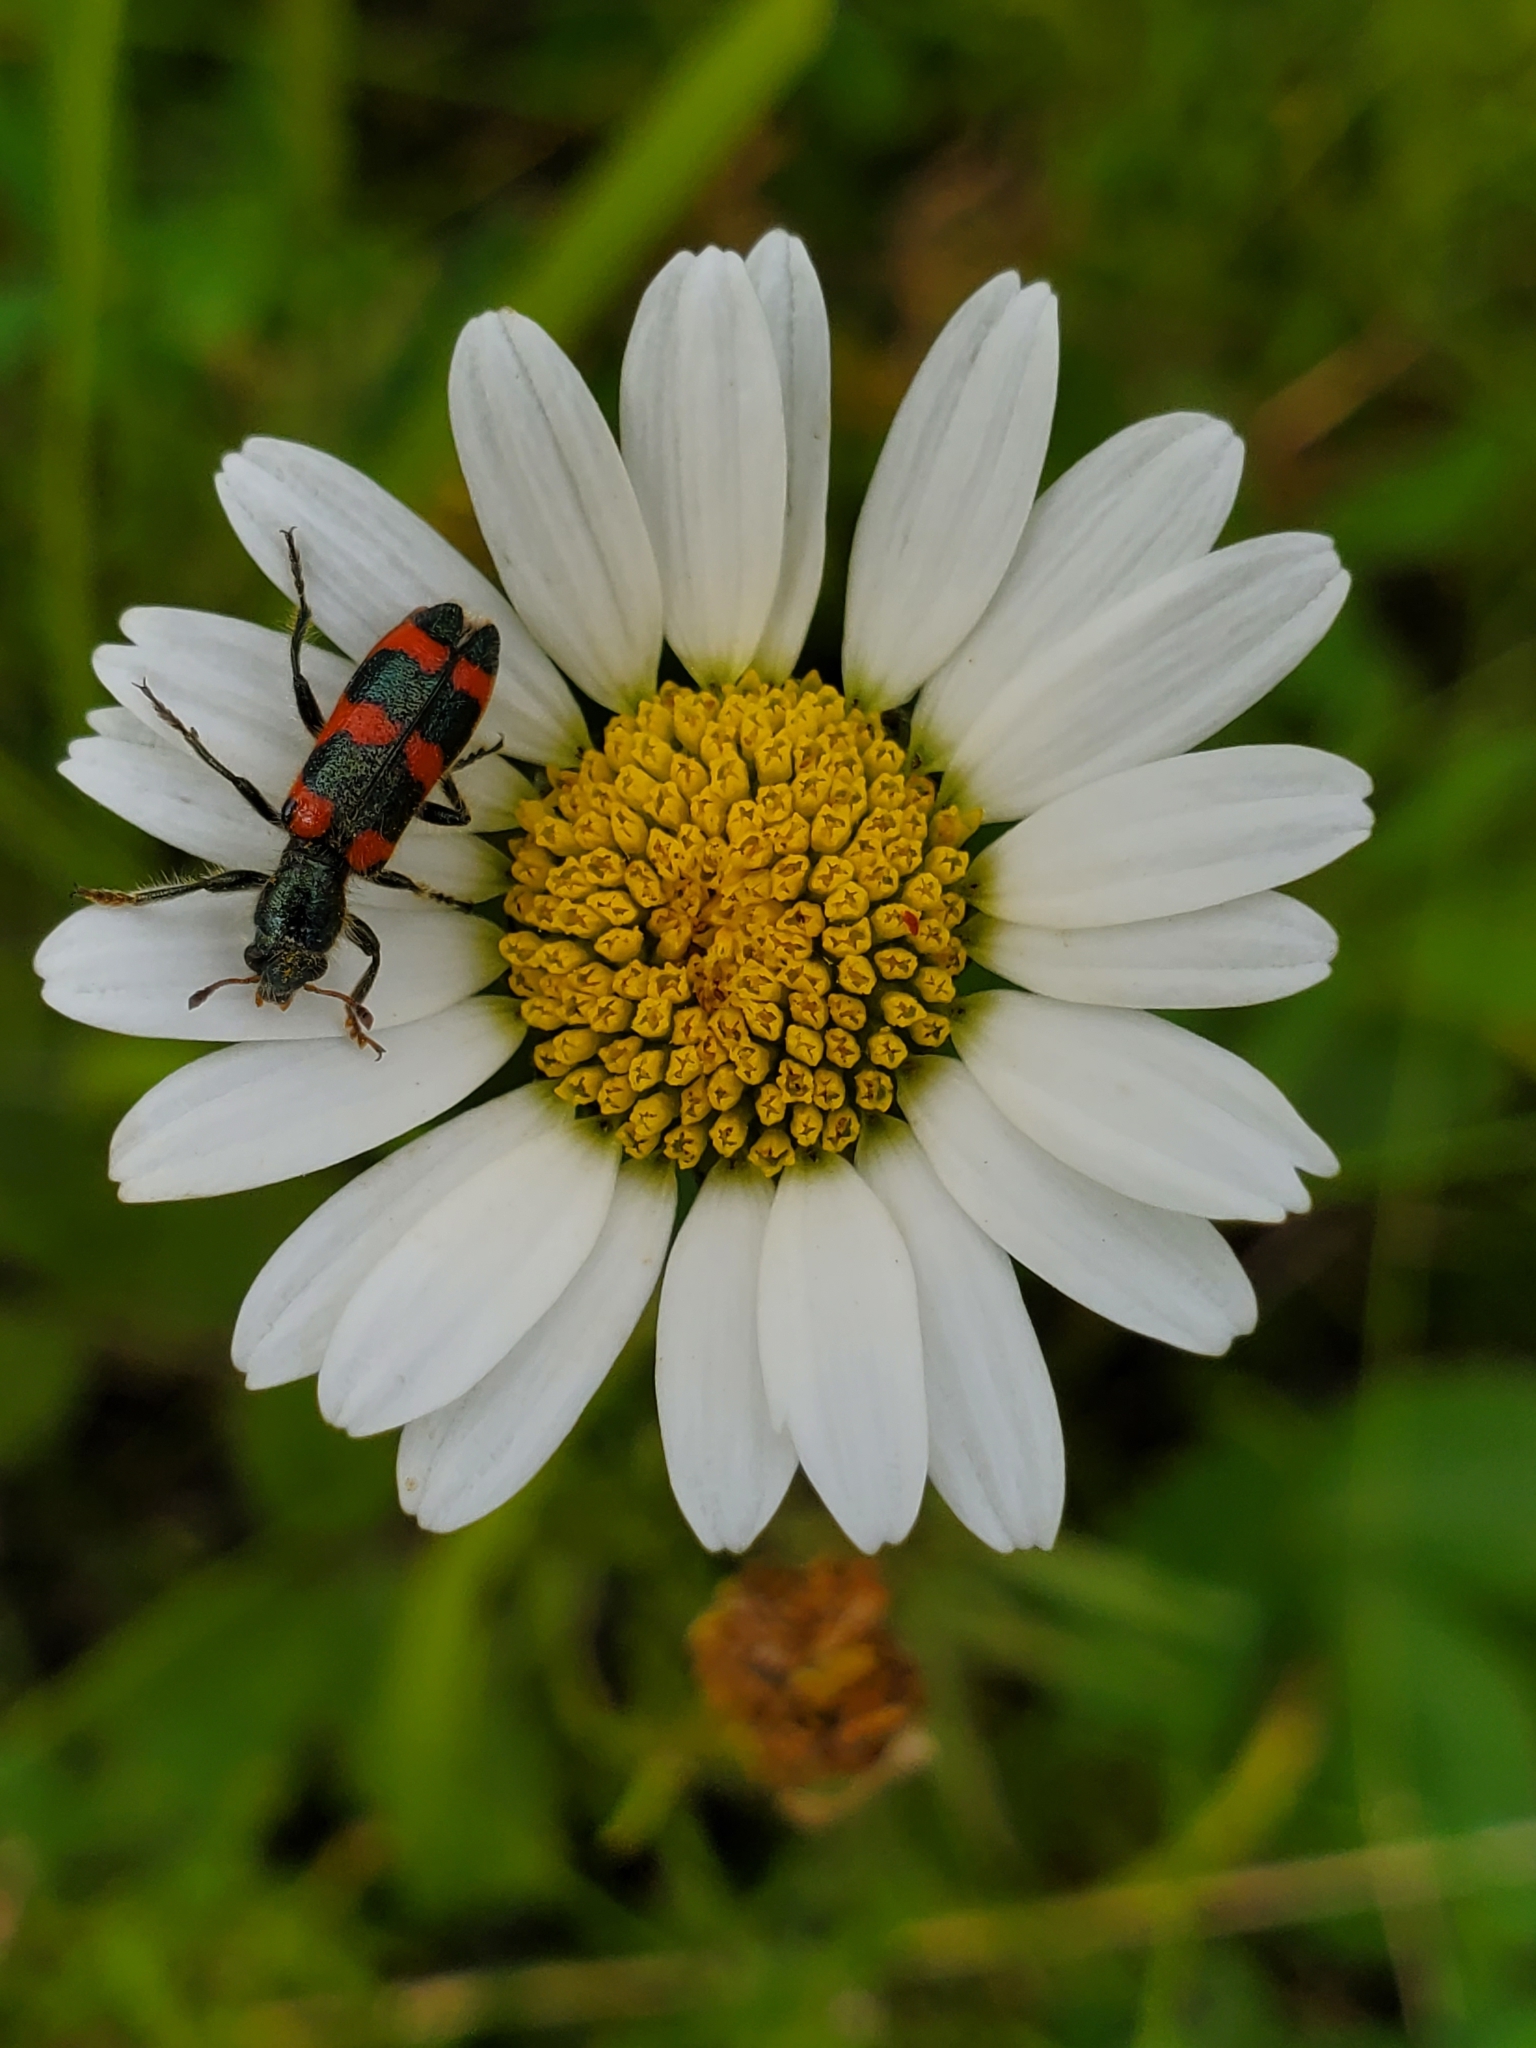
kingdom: Animalia
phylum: Arthropoda
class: Insecta
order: Coleoptera
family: Cleridae
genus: Trichodes
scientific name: Trichodes nutalli
